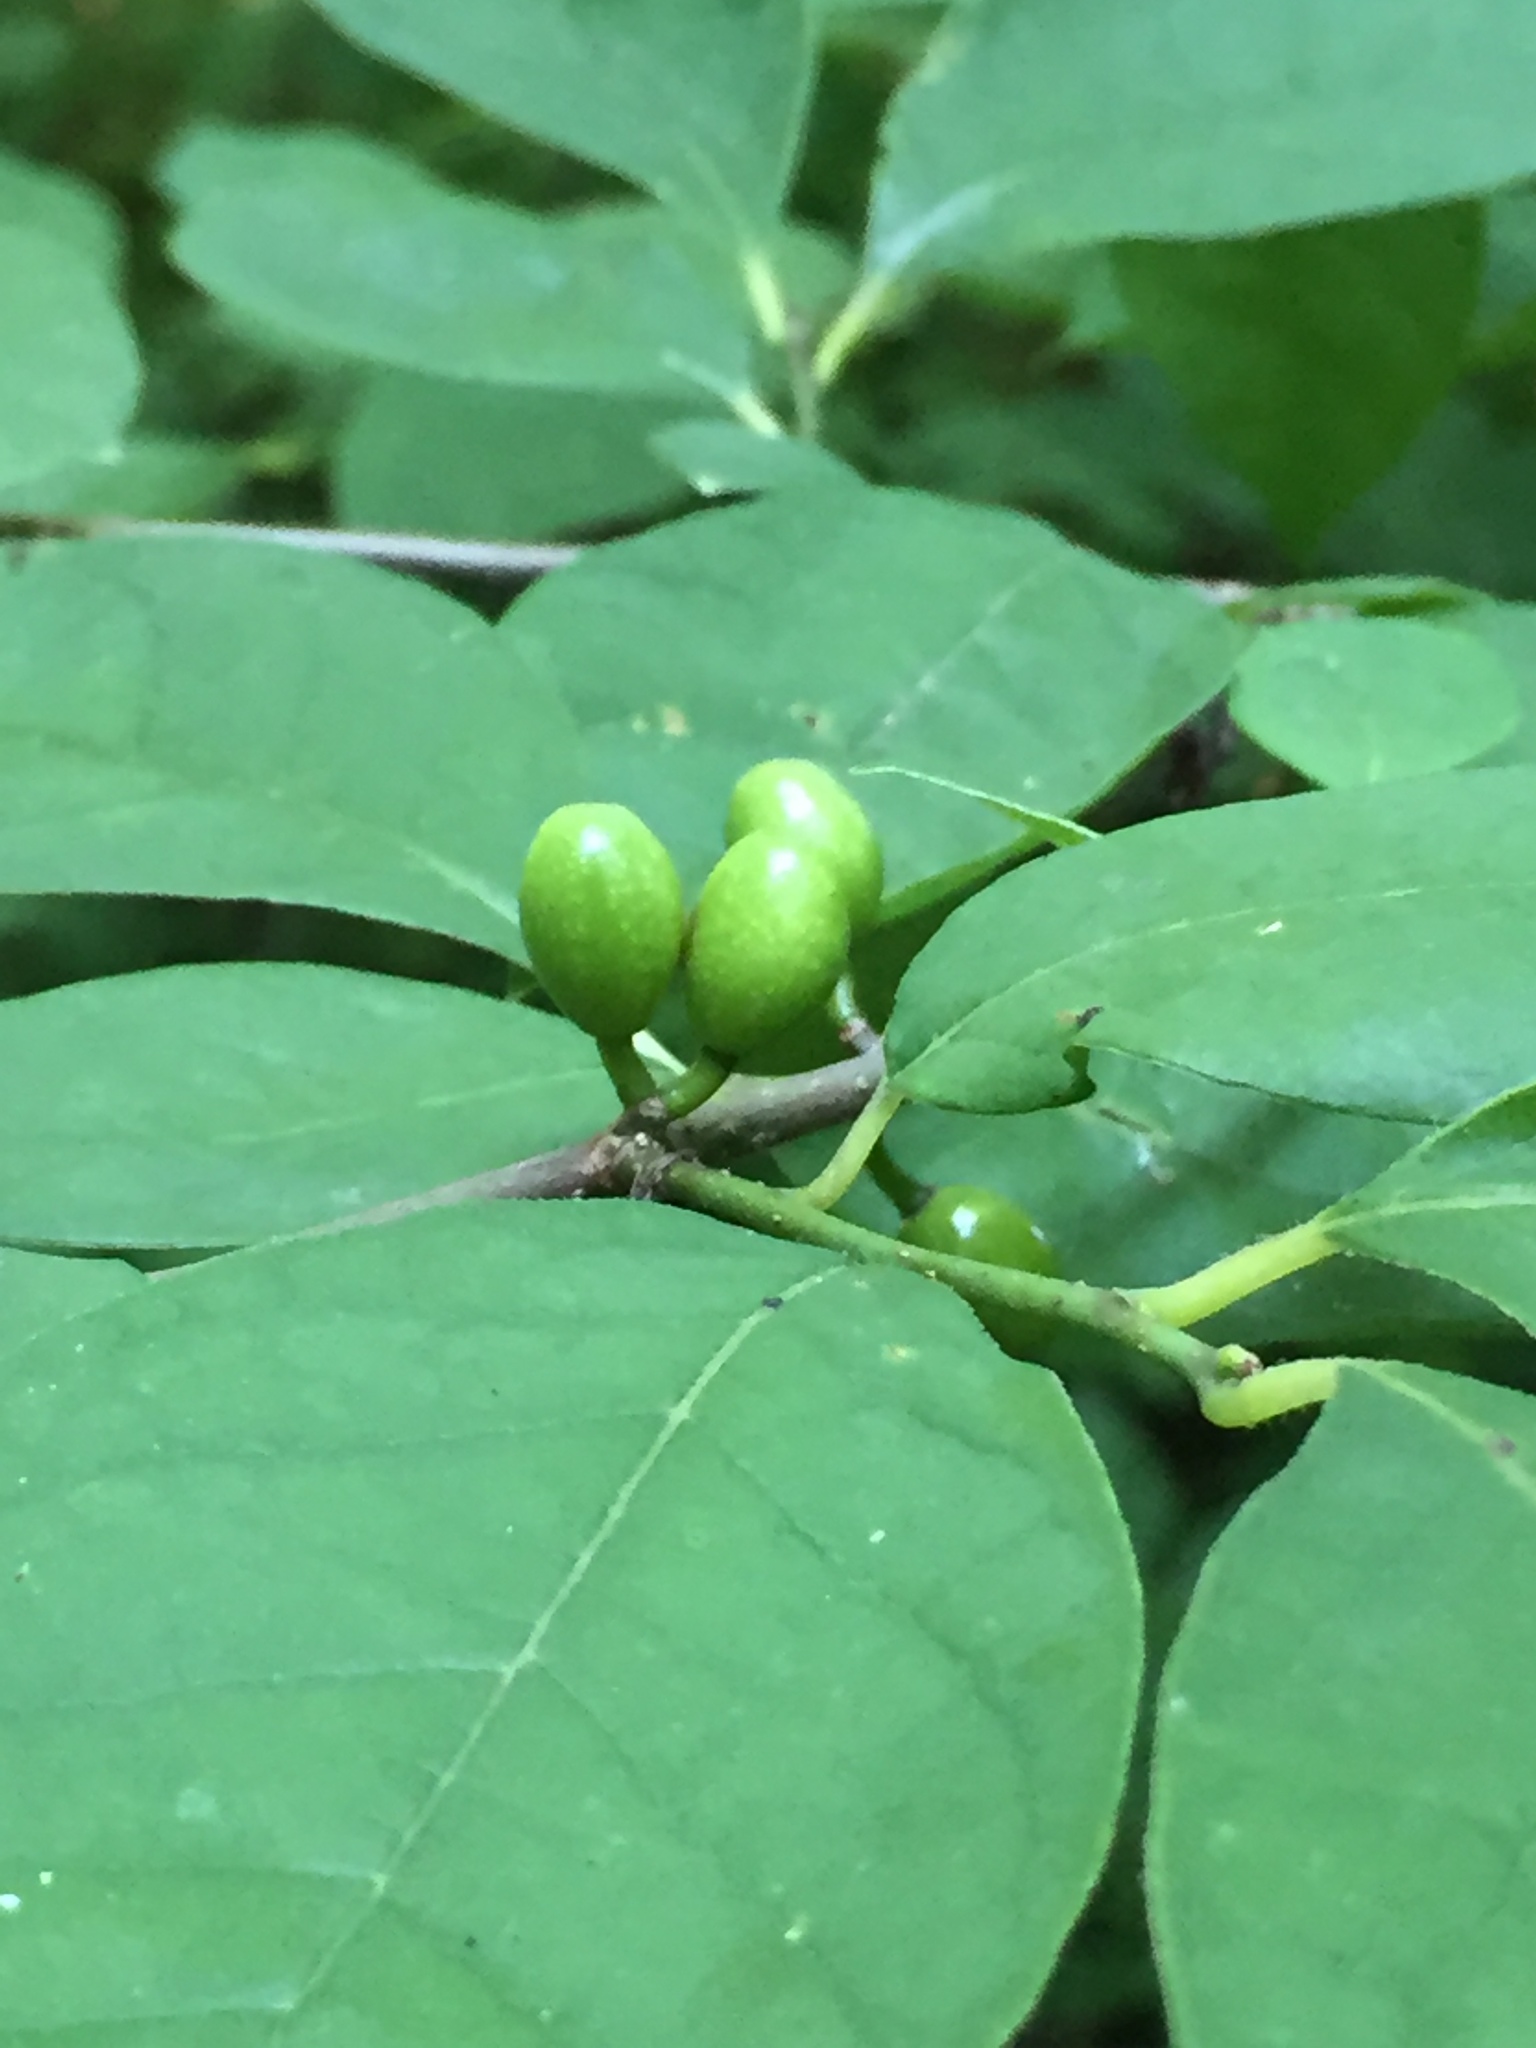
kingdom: Plantae
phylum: Tracheophyta
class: Magnoliopsida
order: Laurales
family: Lauraceae
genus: Lindera
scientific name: Lindera benzoin
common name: Spicebush
